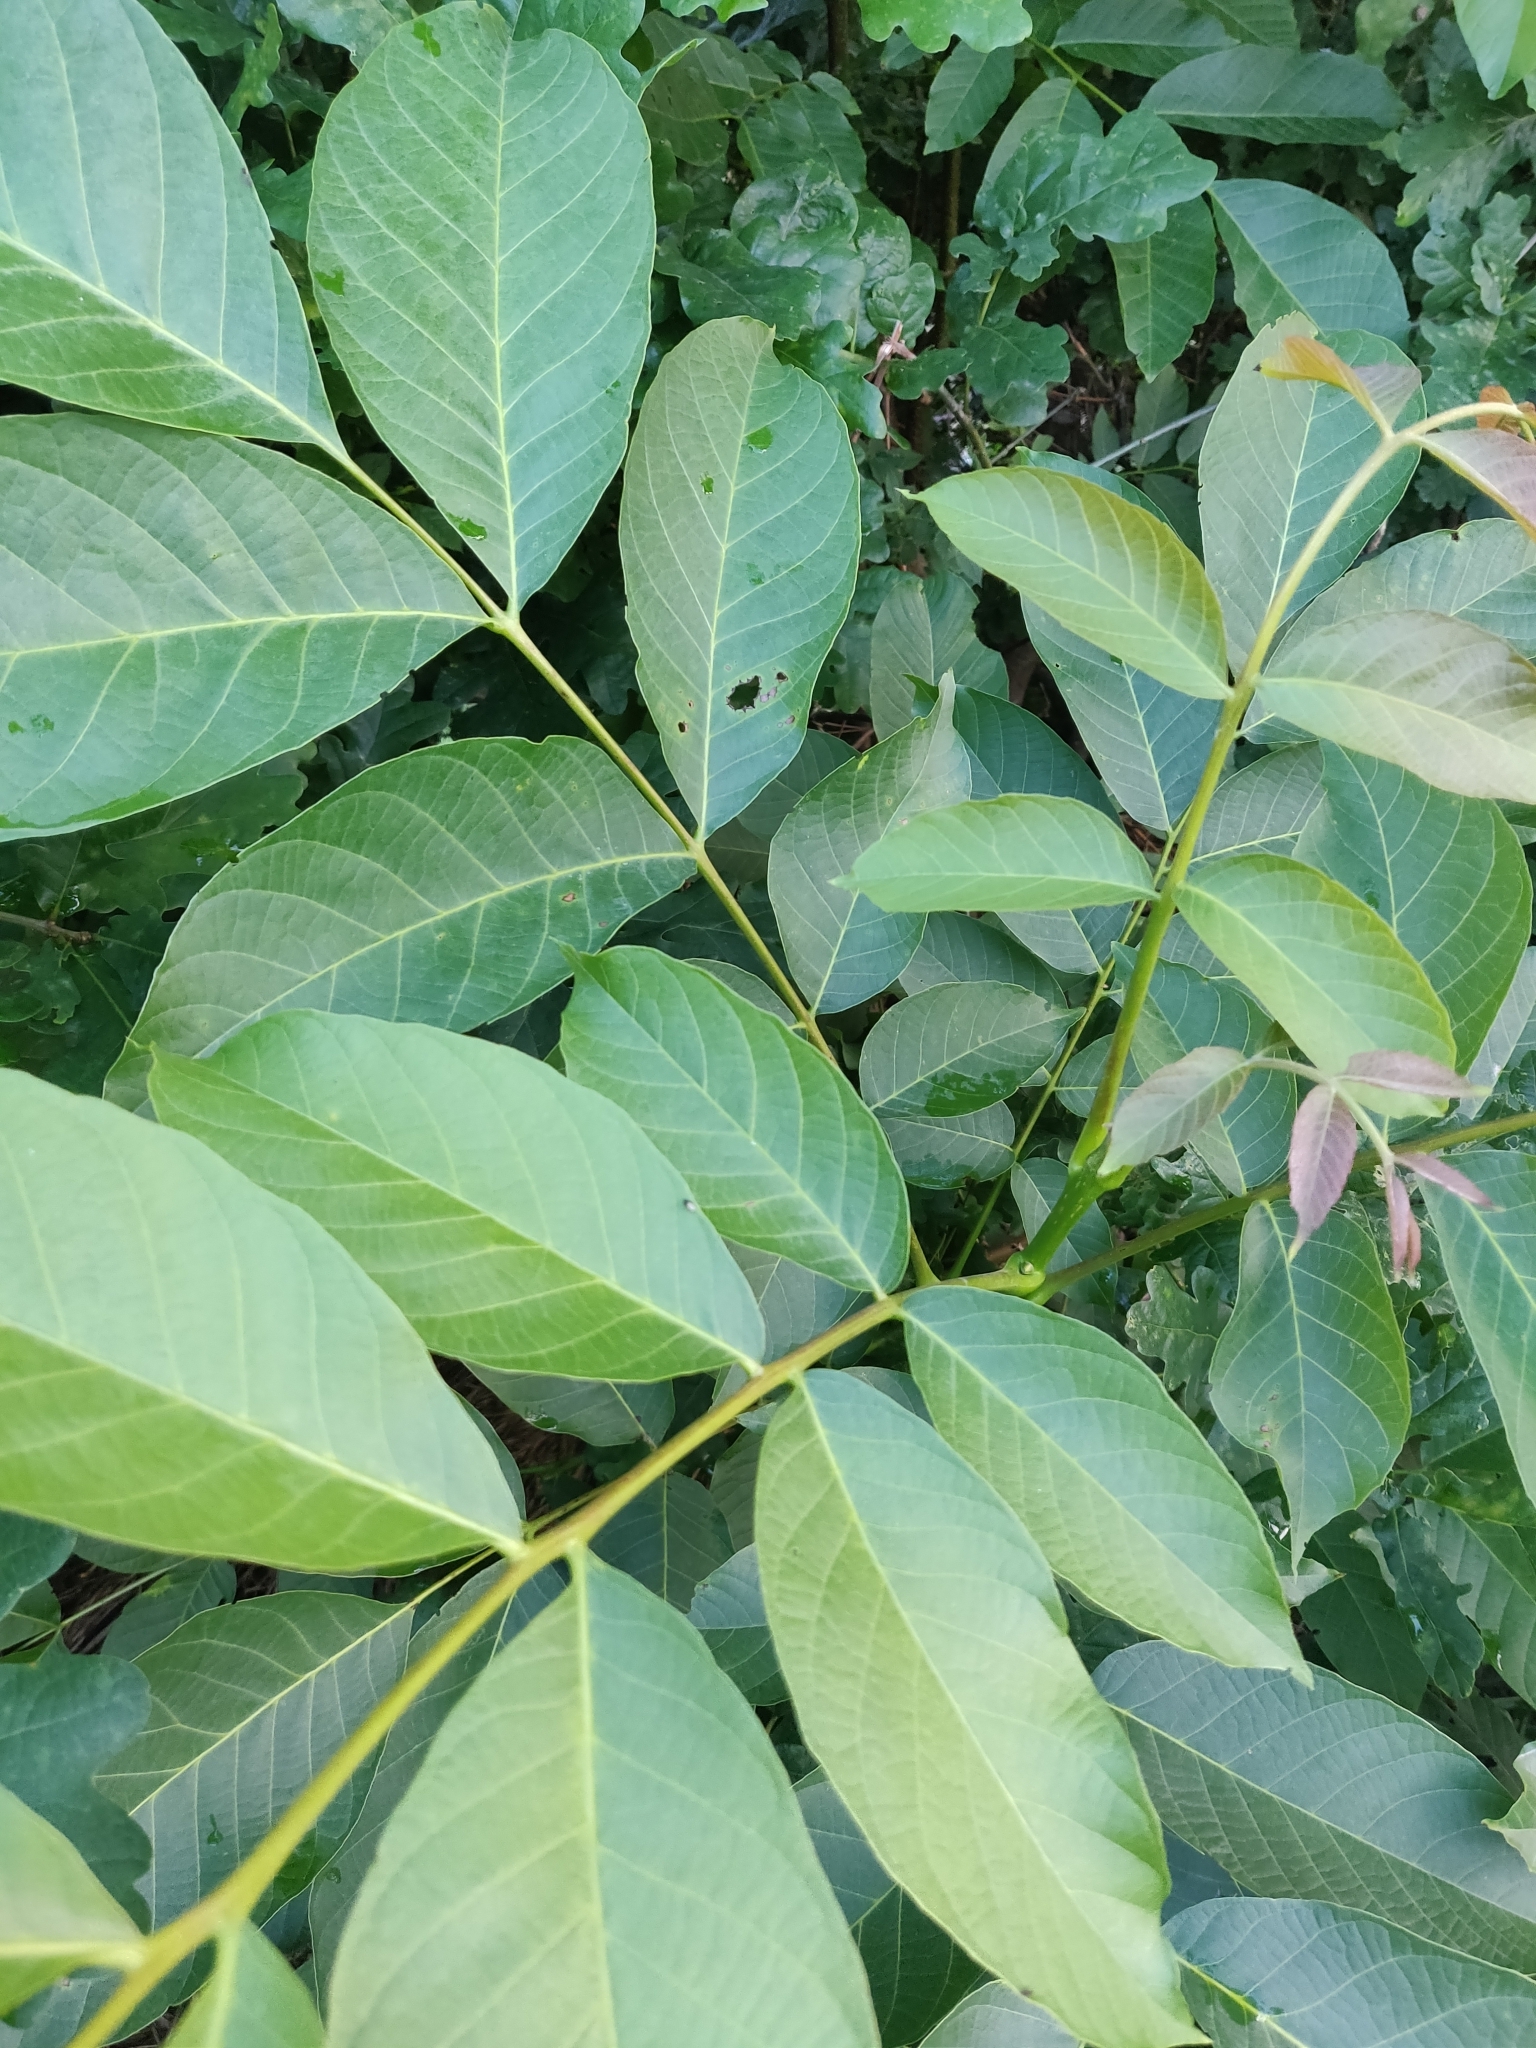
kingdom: Plantae
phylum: Tracheophyta
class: Magnoliopsida
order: Fagales
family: Juglandaceae
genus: Juglans
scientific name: Juglans regia
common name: Walnut
